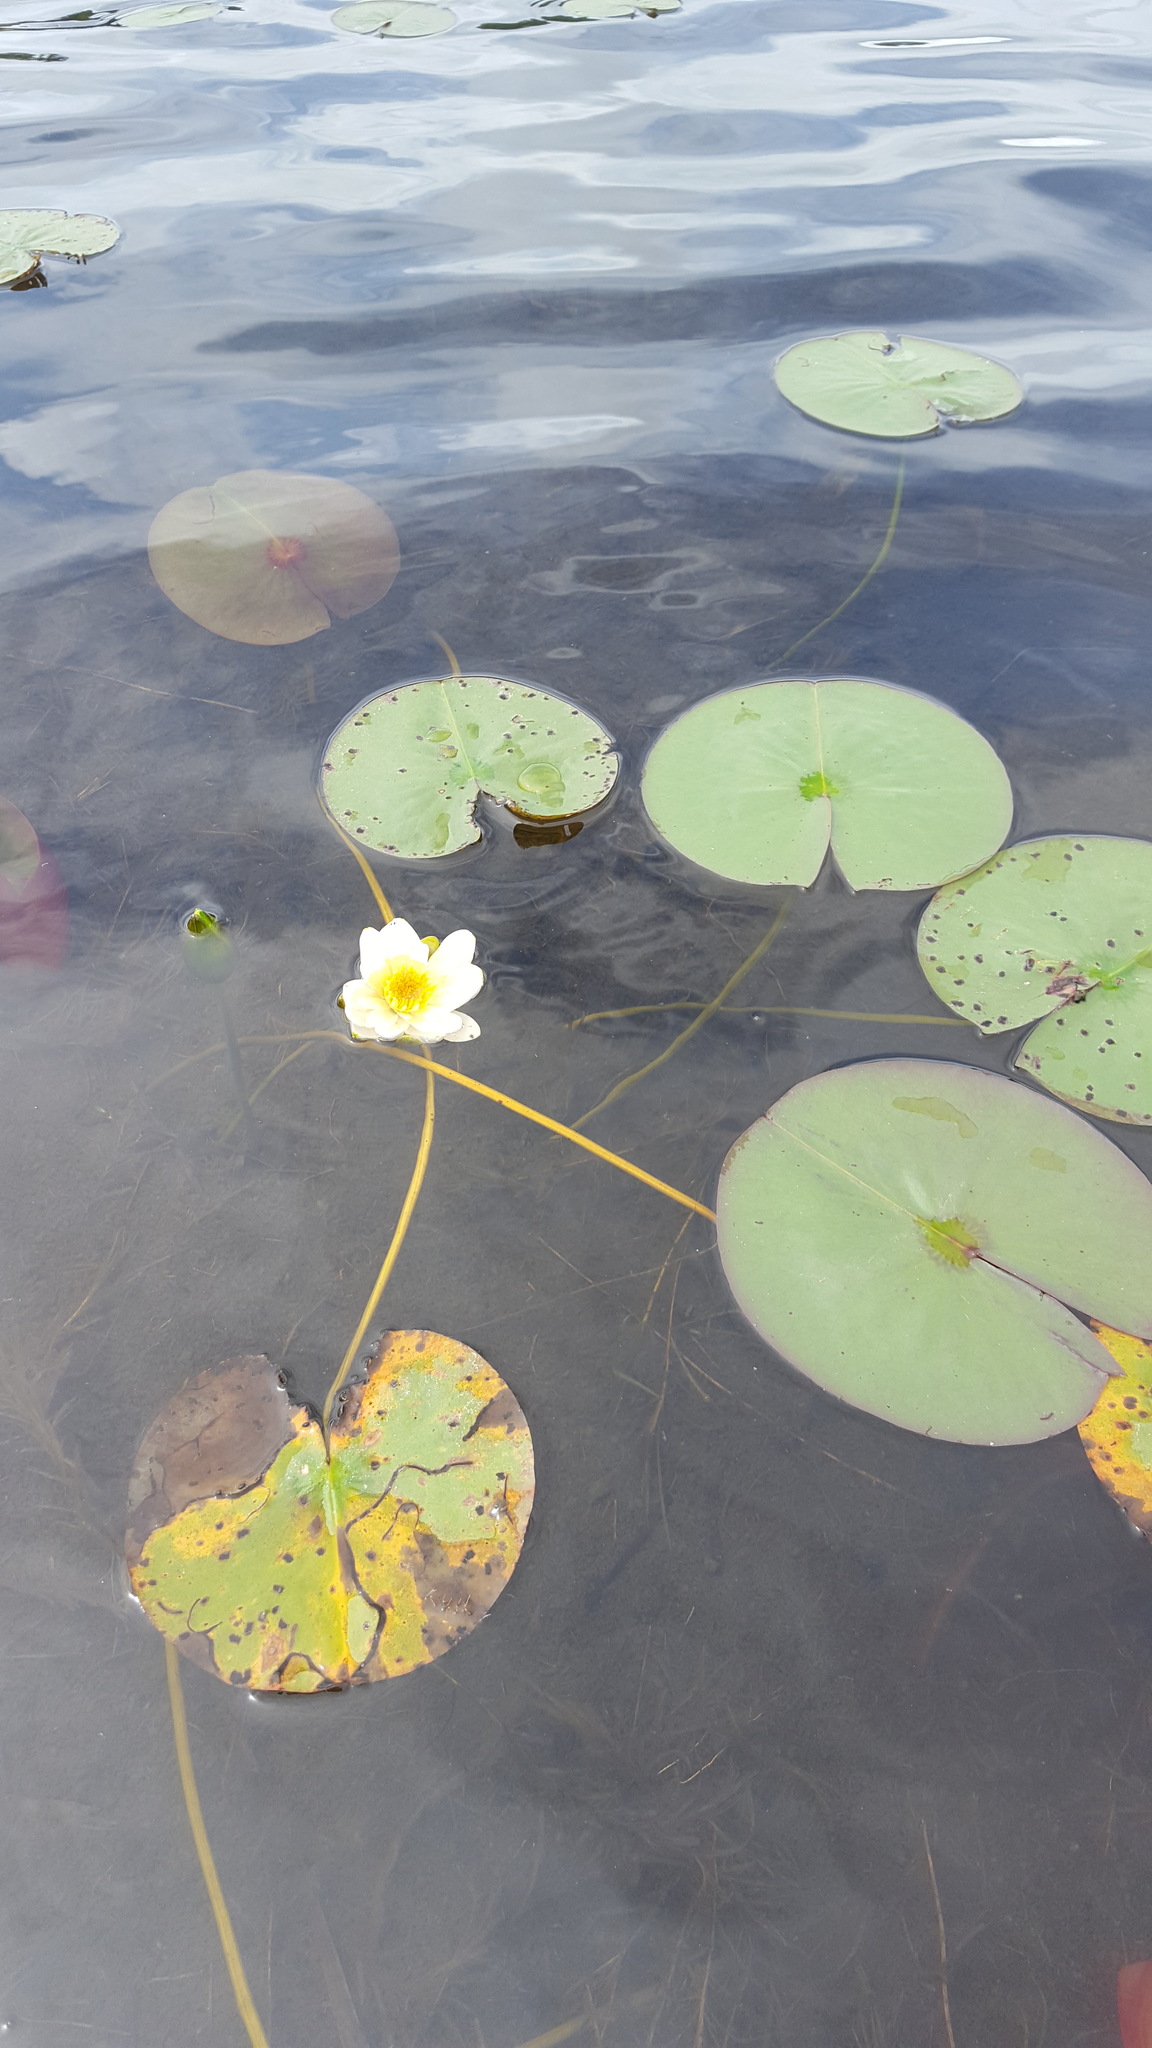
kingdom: Plantae
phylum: Tracheophyta
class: Magnoliopsida
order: Nymphaeales
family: Nymphaeaceae
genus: Nymphaea
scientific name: Nymphaea odorata
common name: Fragrant water-lily
